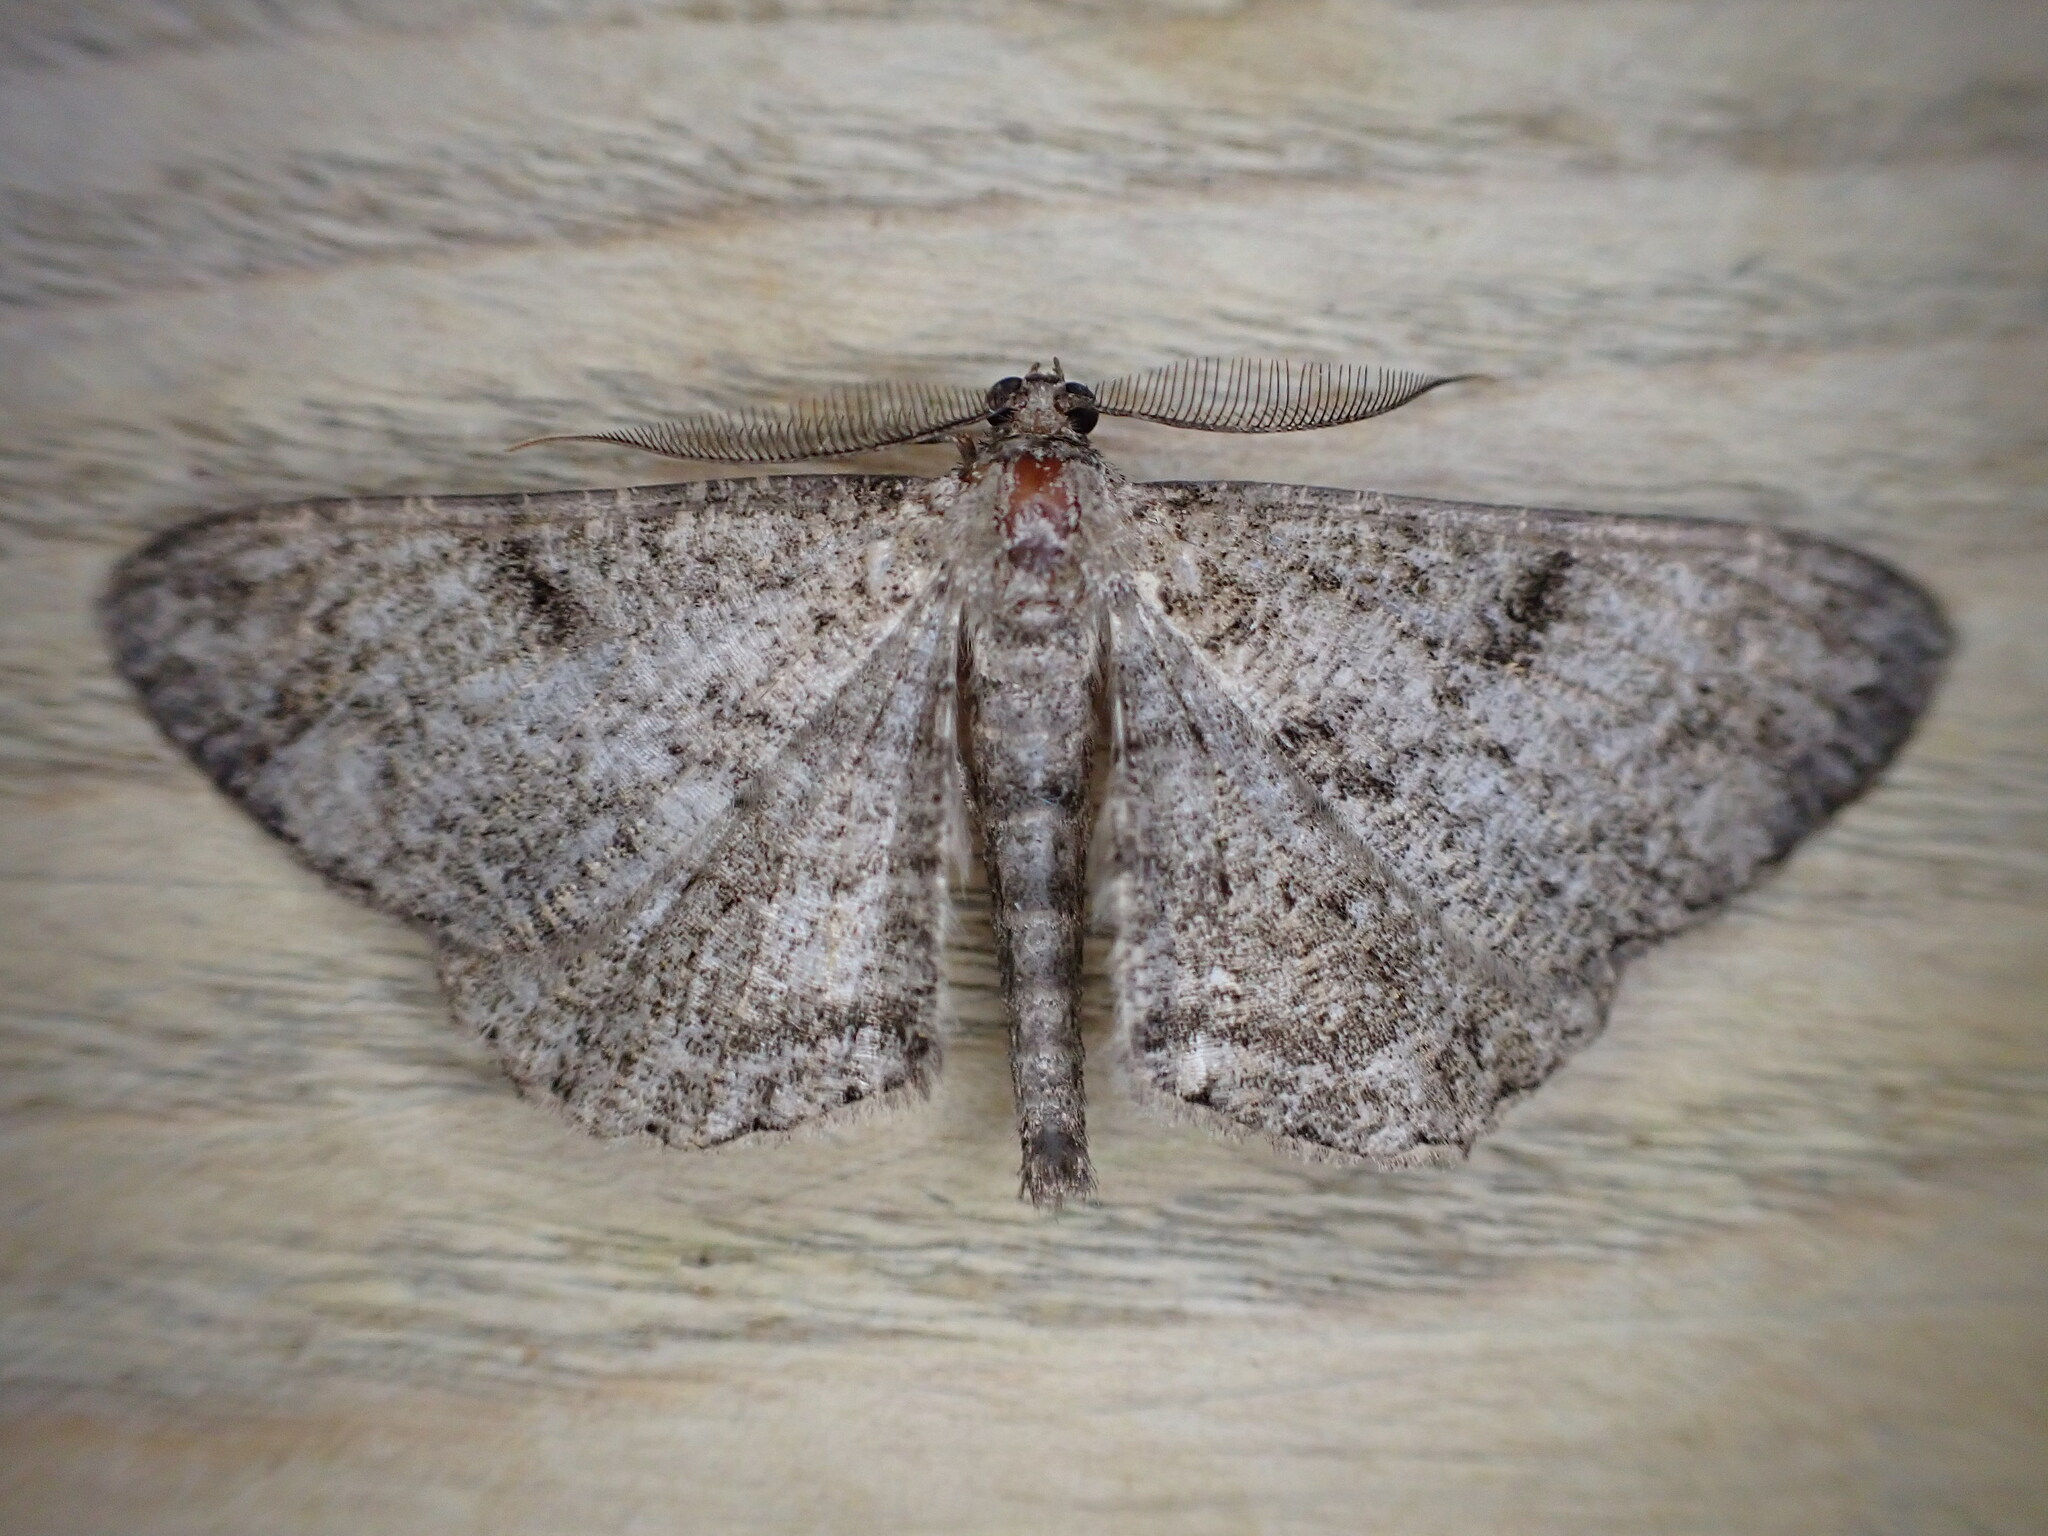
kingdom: Animalia
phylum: Arthropoda
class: Insecta
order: Lepidoptera
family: Geometridae
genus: Peribatodes
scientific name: Peribatodes rhomboidaria
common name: Willow beauty
